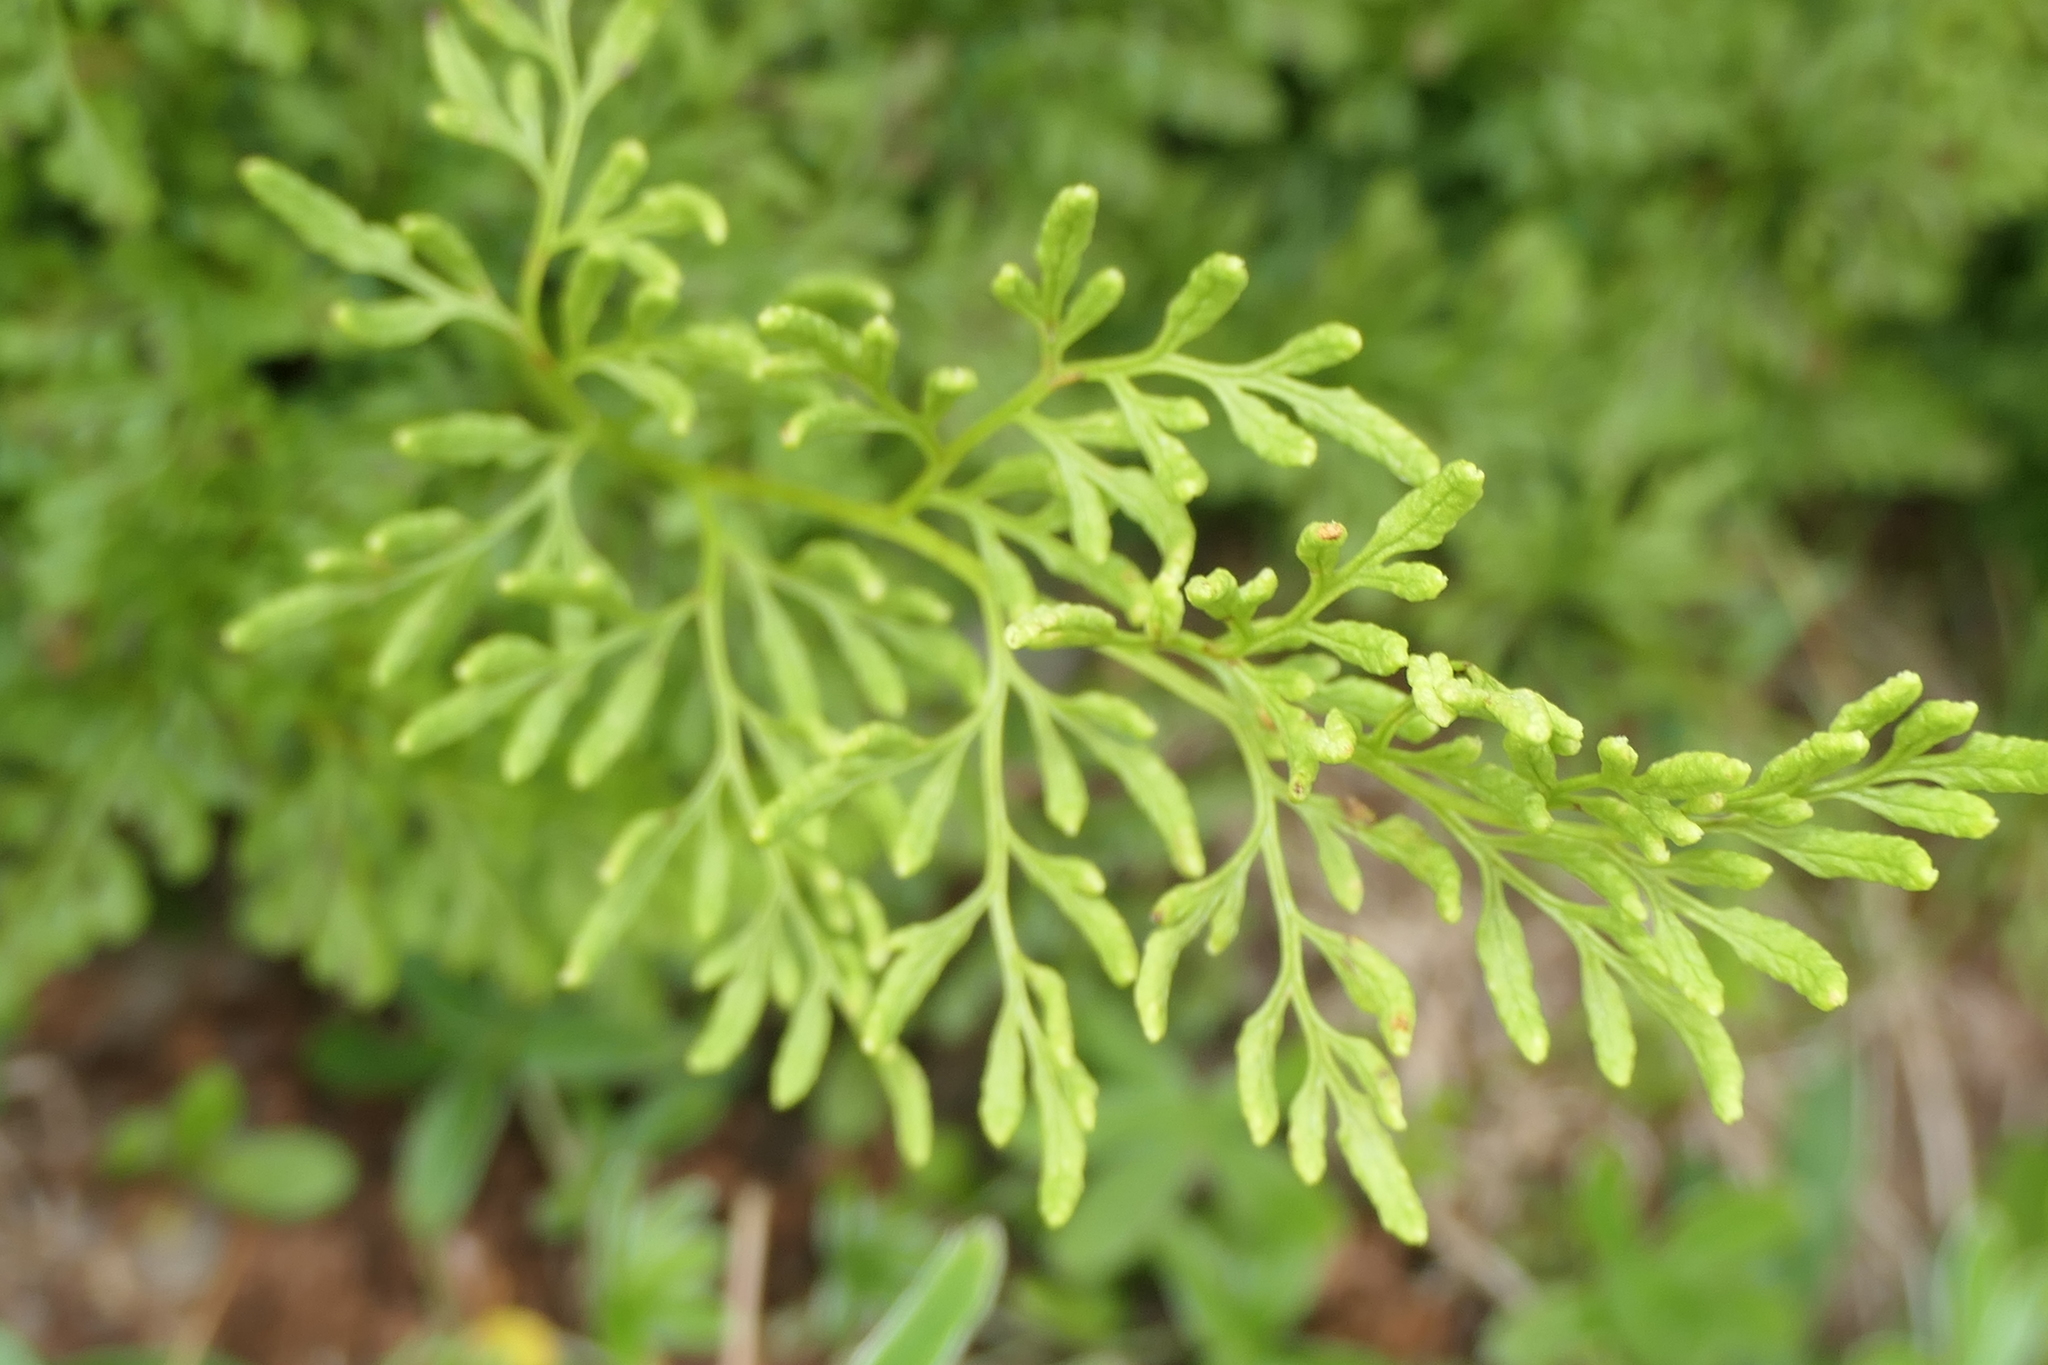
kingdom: Plantae
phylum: Tracheophyta
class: Polypodiopsida
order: Polypodiales
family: Pteridaceae
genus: Cryptogramma
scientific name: Cryptogramma crispa
